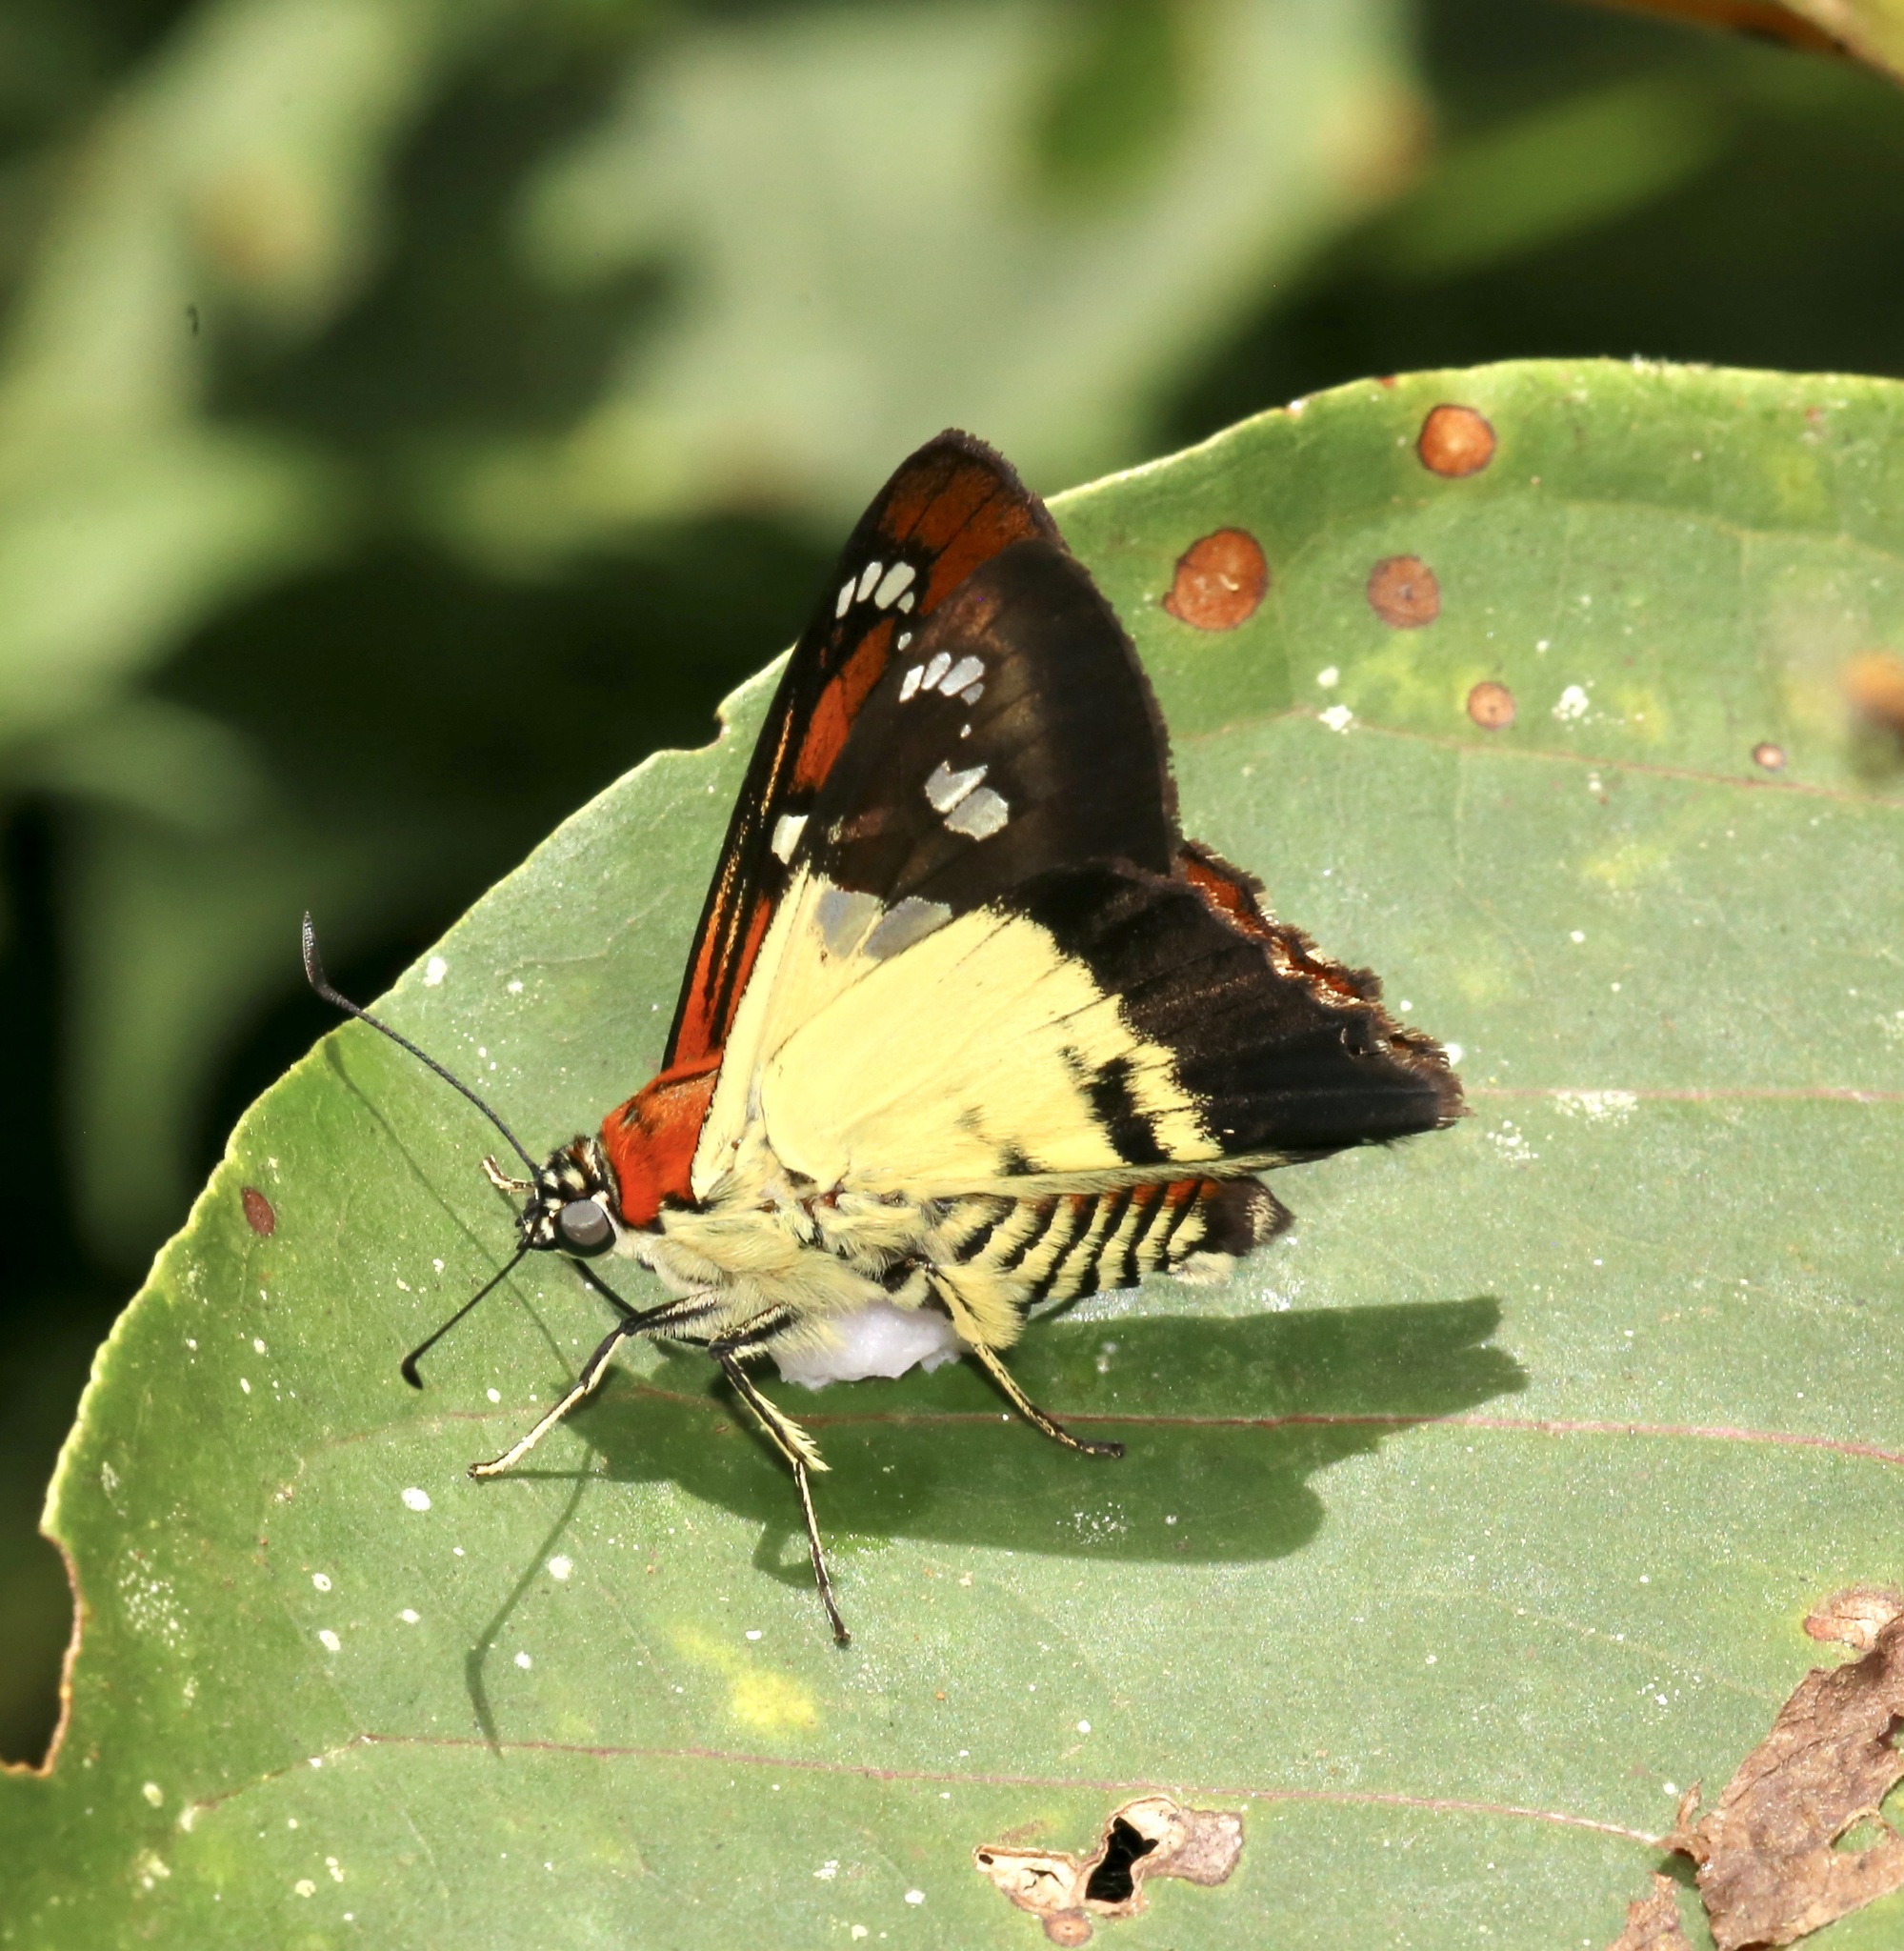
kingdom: Animalia
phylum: Arthropoda
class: Insecta
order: Lepidoptera
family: Hesperiidae
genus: Myscelus
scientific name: Myscelus pegasus
